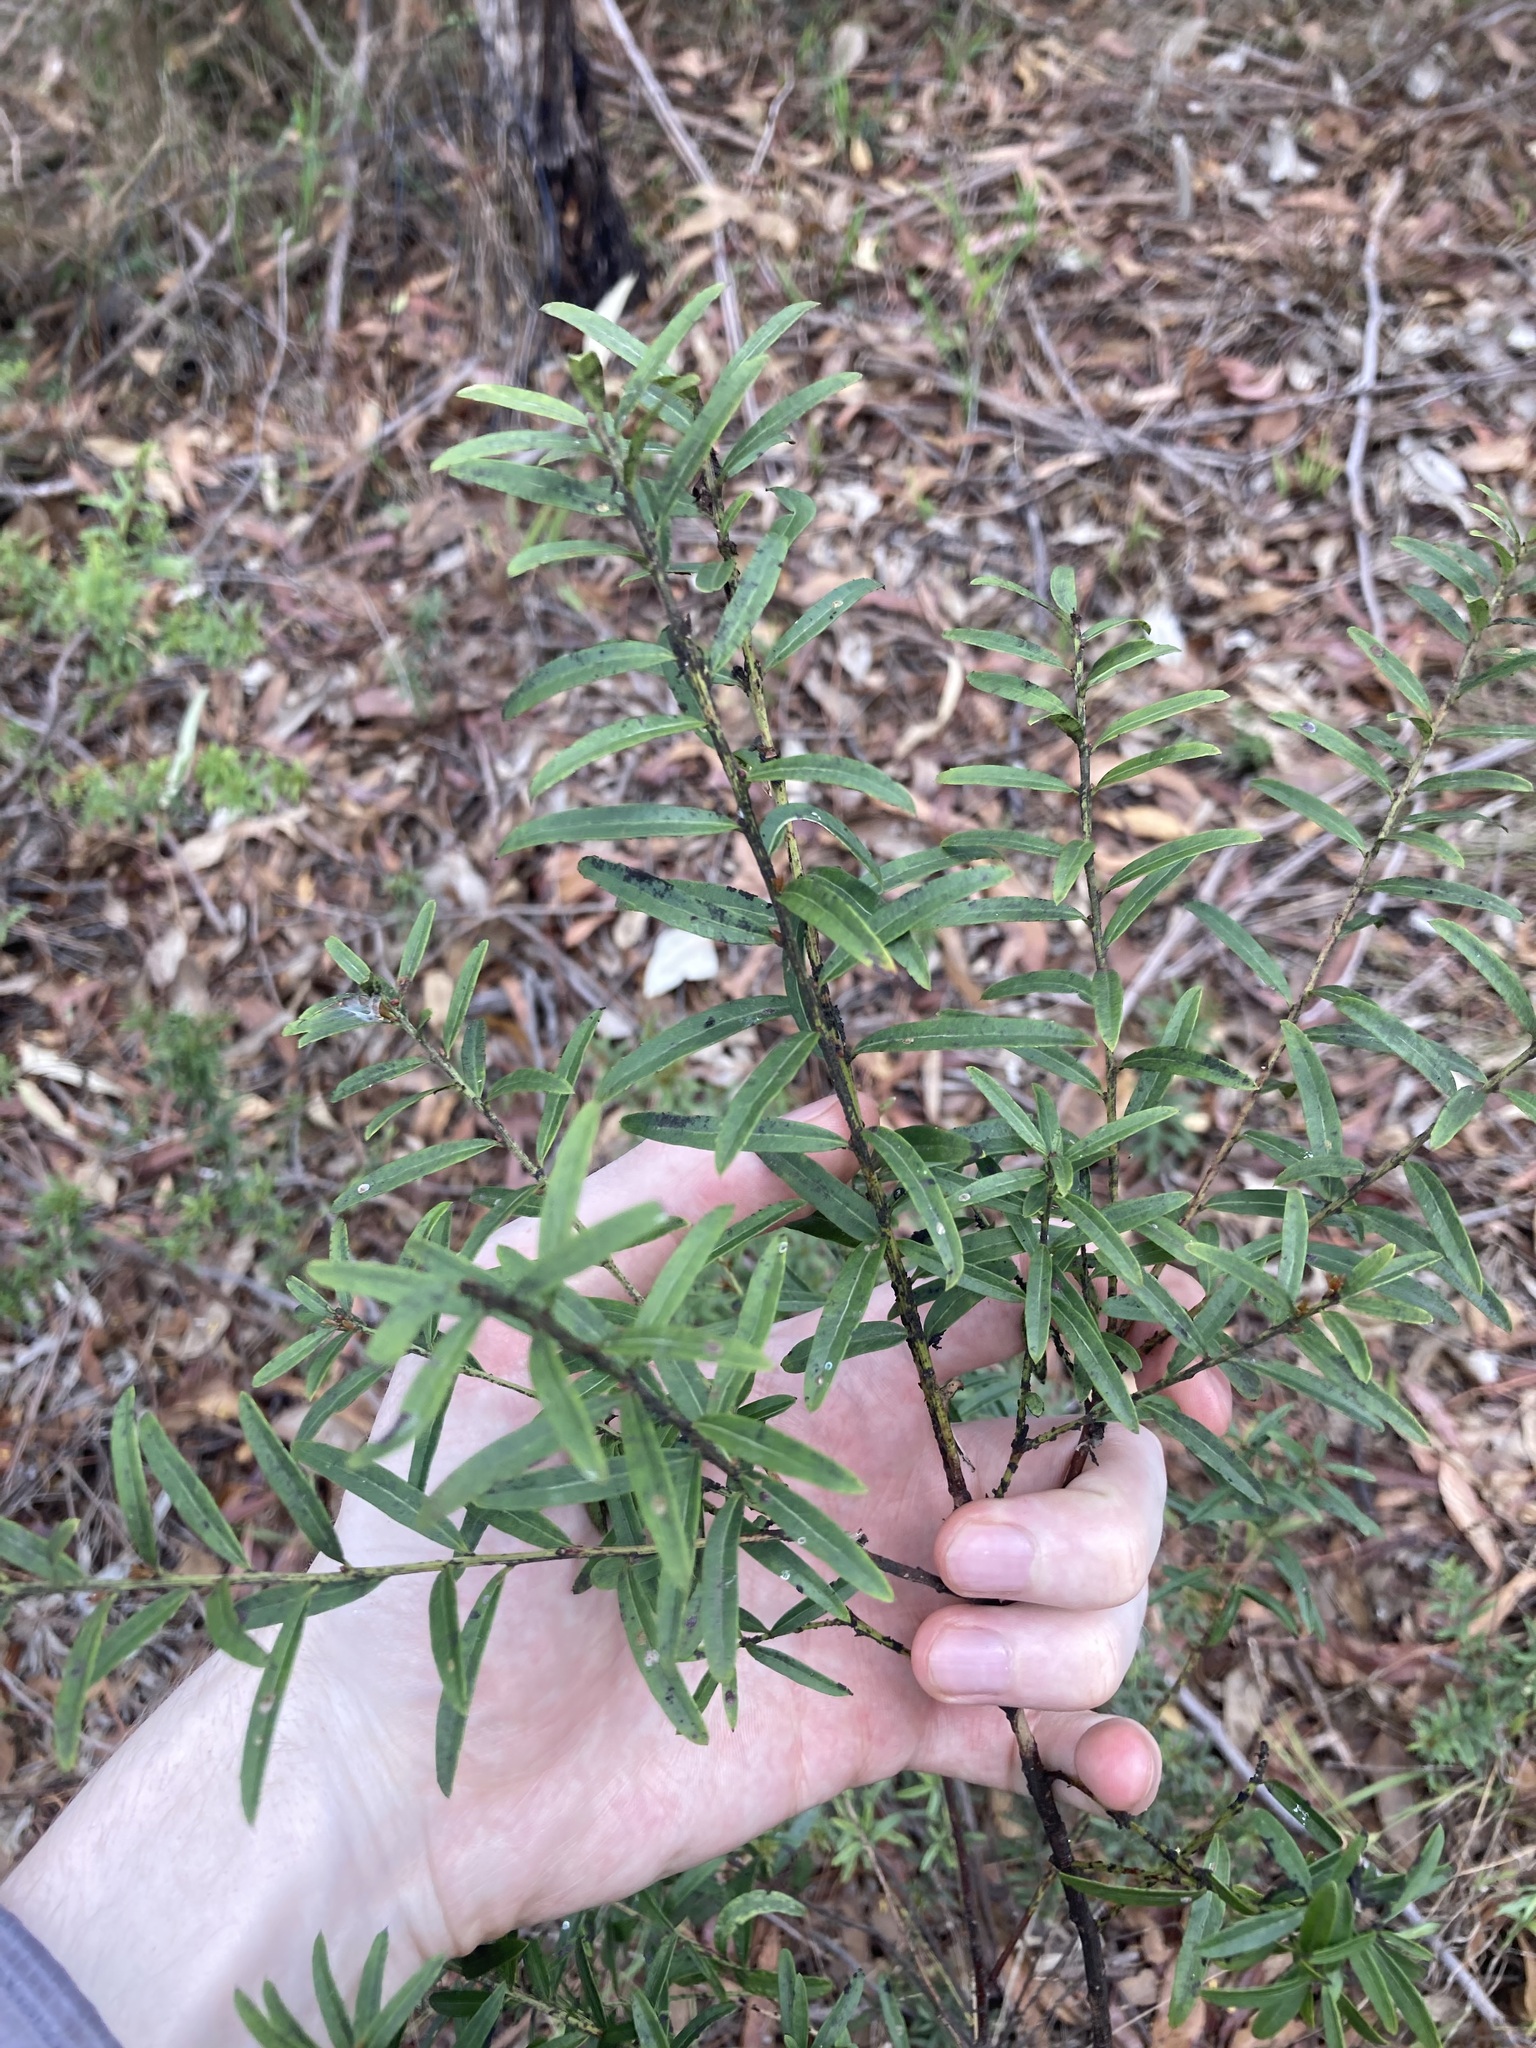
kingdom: Plantae
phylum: Tracheophyta
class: Magnoliopsida
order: Celastrales
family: Celastraceae
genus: Denhamia
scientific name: Denhamia silvestris
